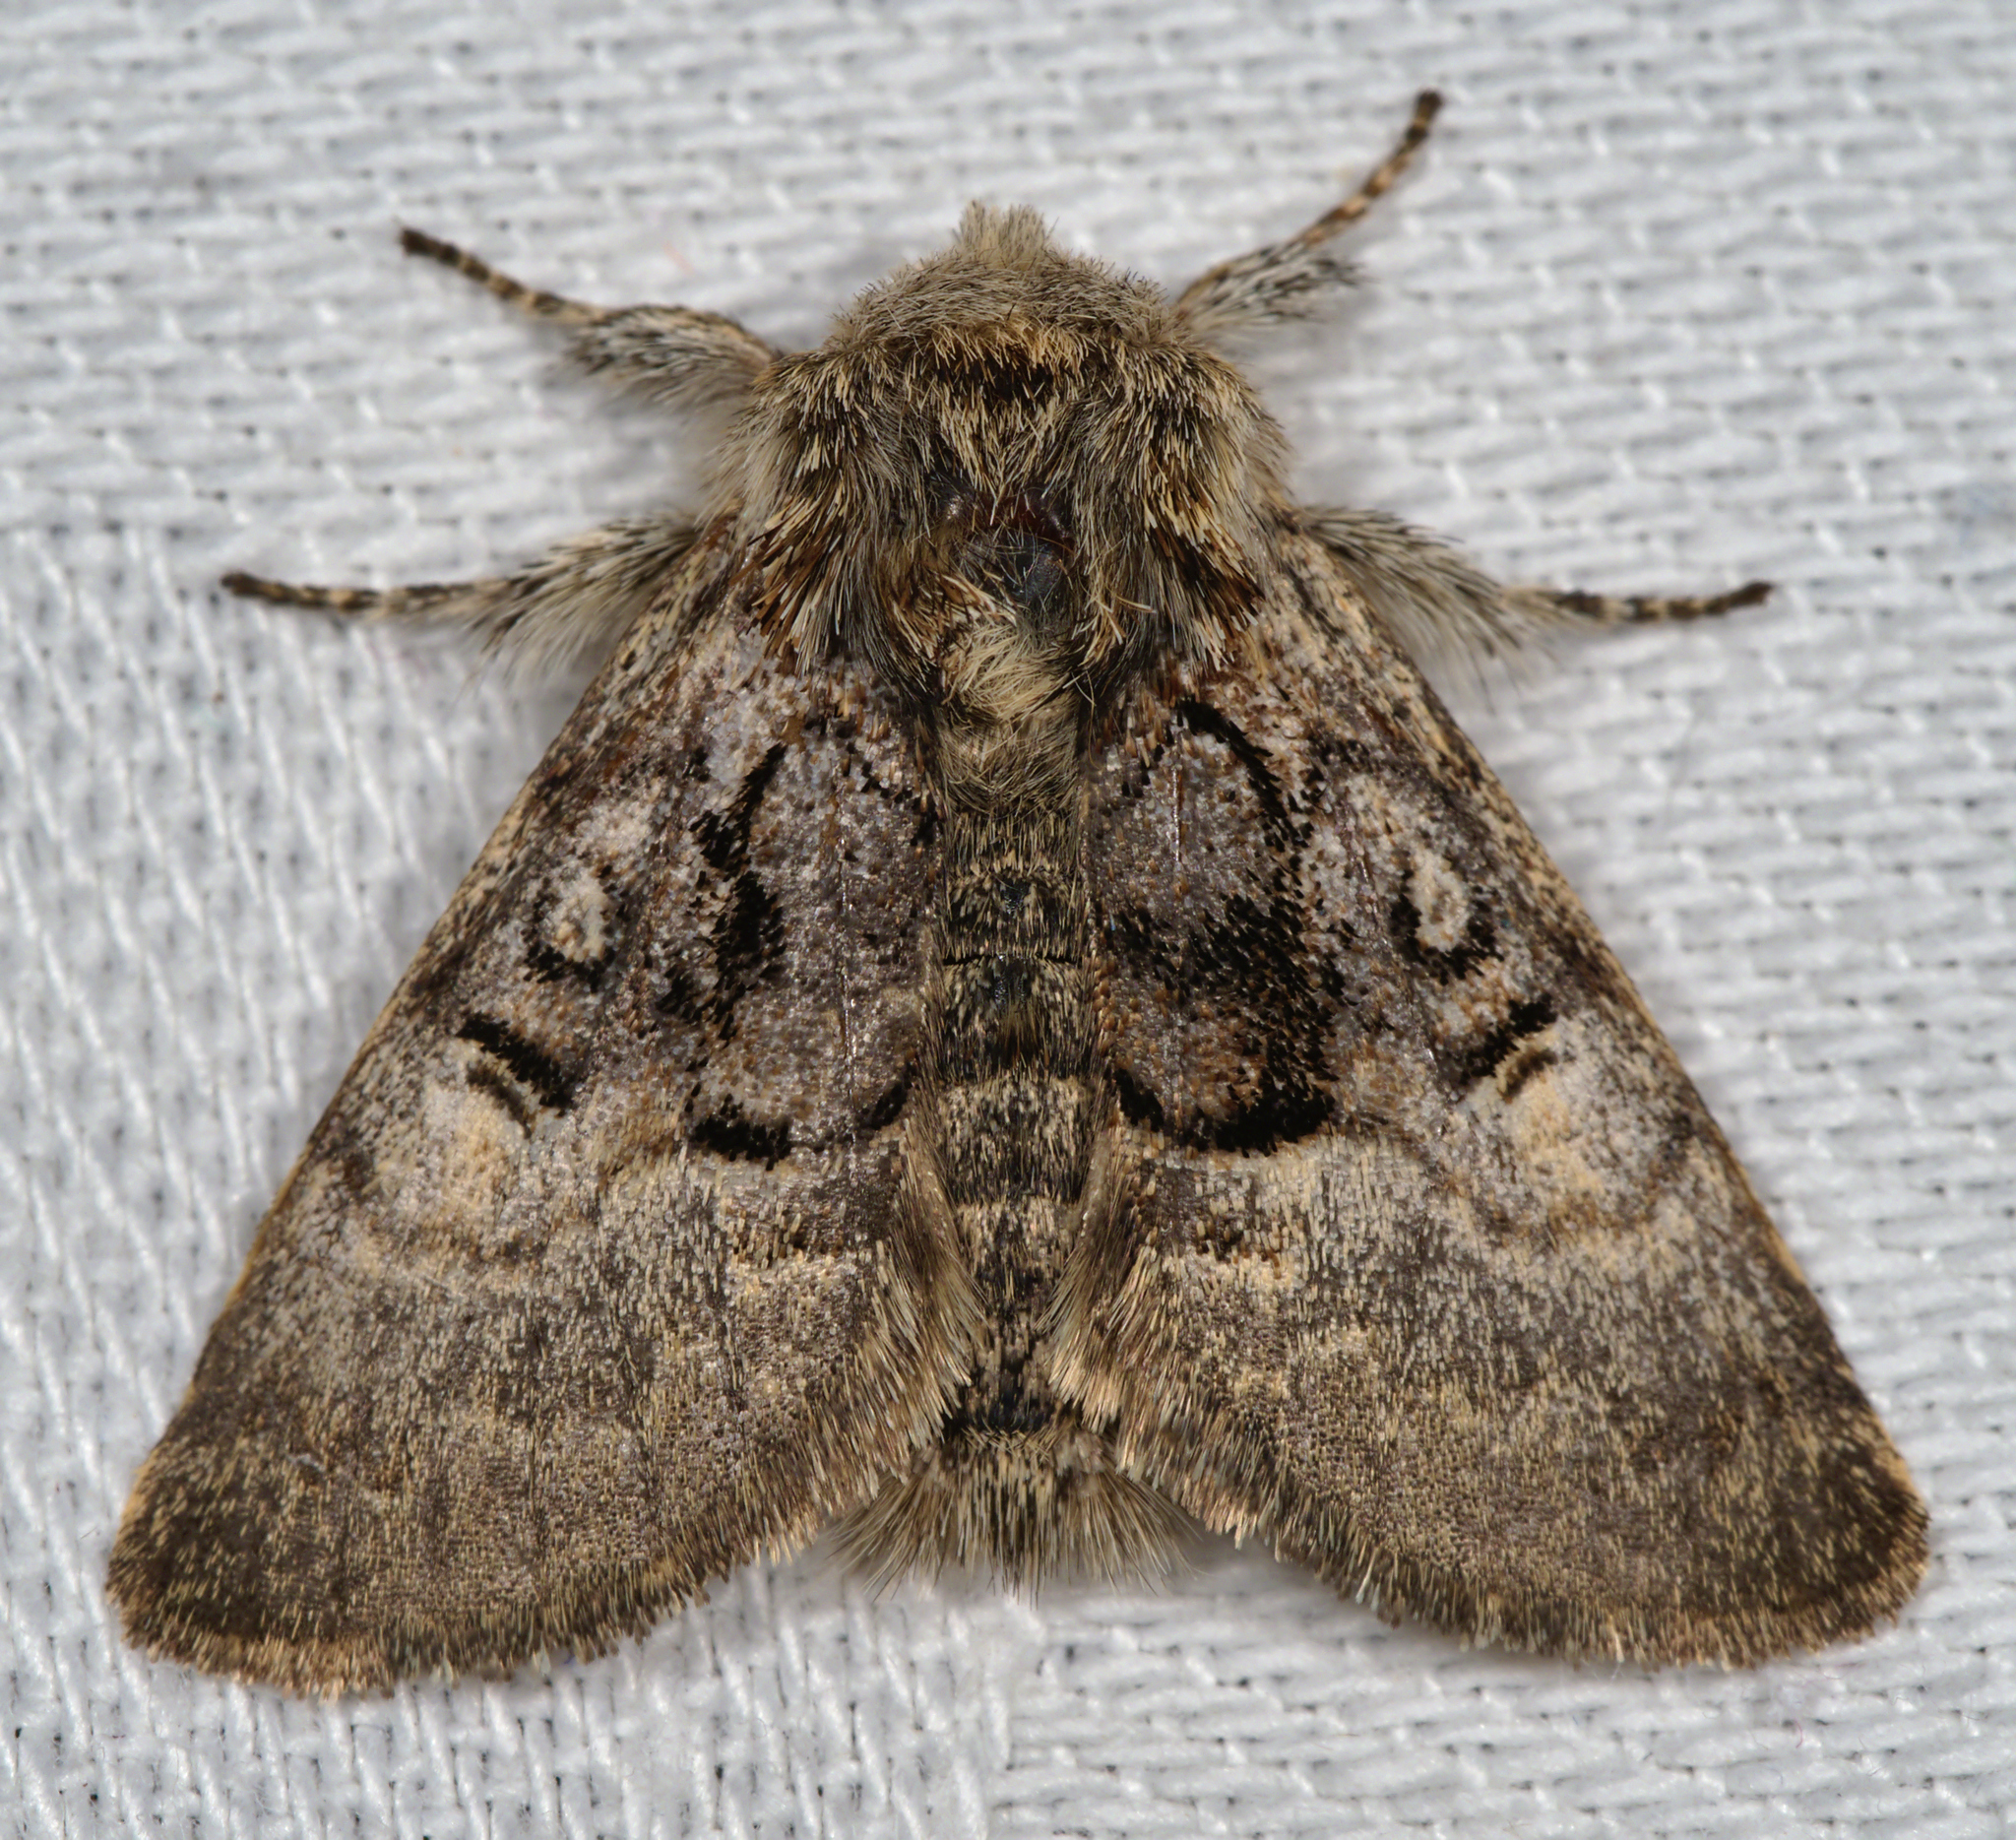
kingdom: Animalia
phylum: Arthropoda
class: Insecta
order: Lepidoptera
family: Noctuidae
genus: Colocasia
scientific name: Colocasia coryli
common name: Nut-tree tussock
